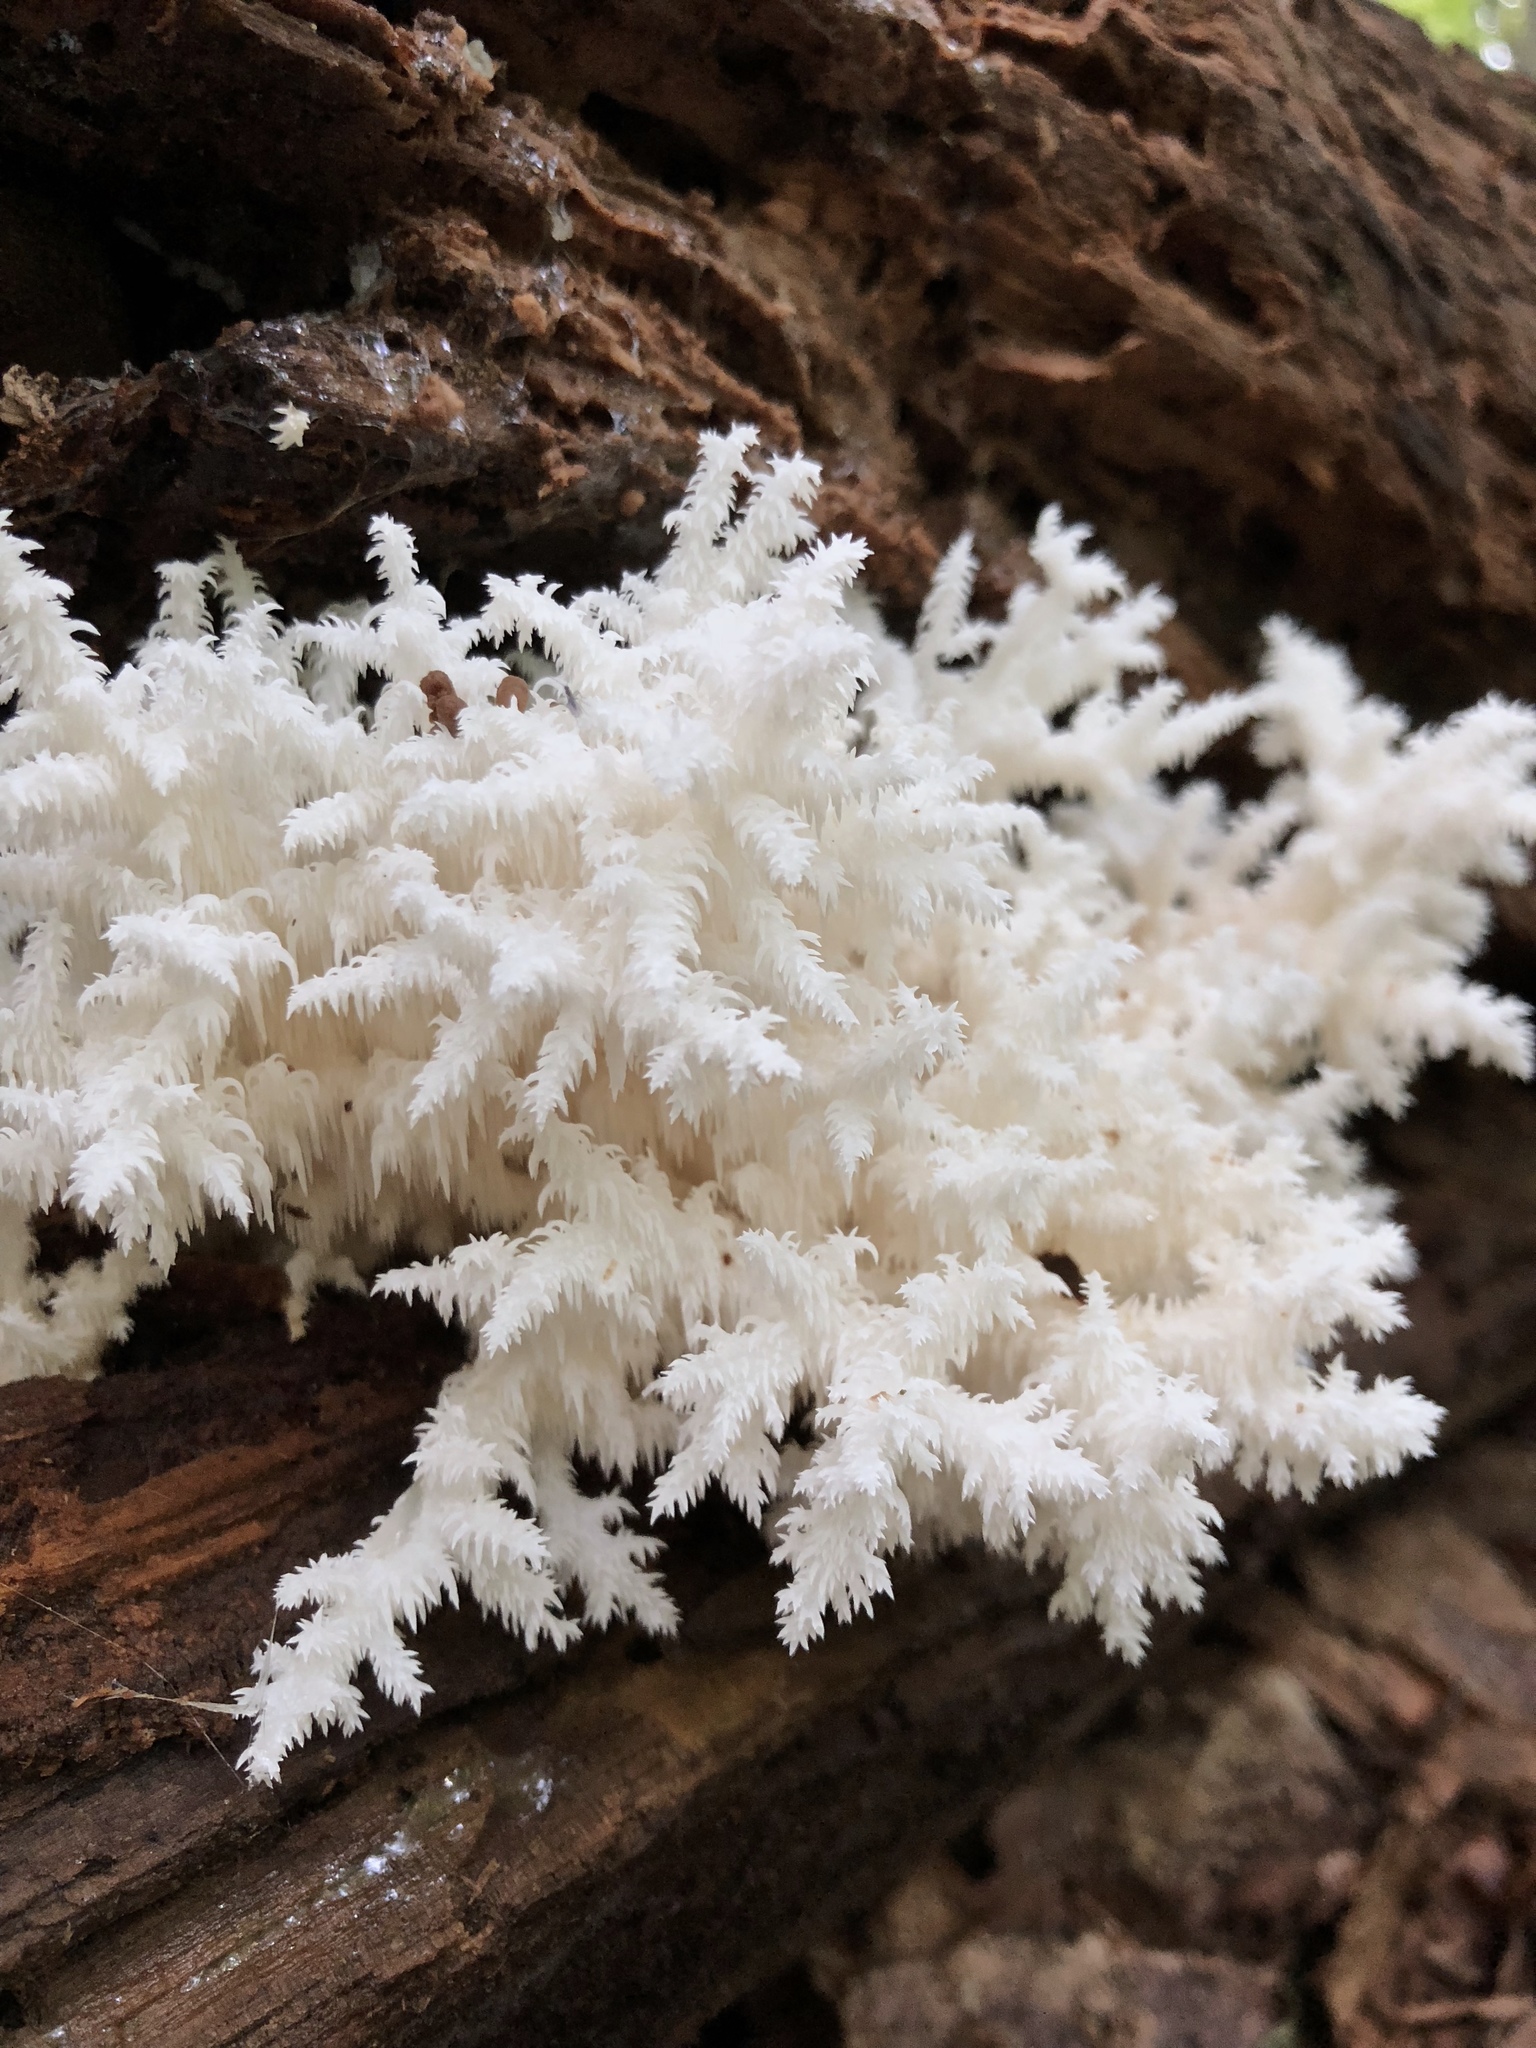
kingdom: Fungi
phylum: Basidiomycota
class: Agaricomycetes
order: Russulales
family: Hericiaceae
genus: Hericium
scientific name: Hericium coralloides
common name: Coral tooth
